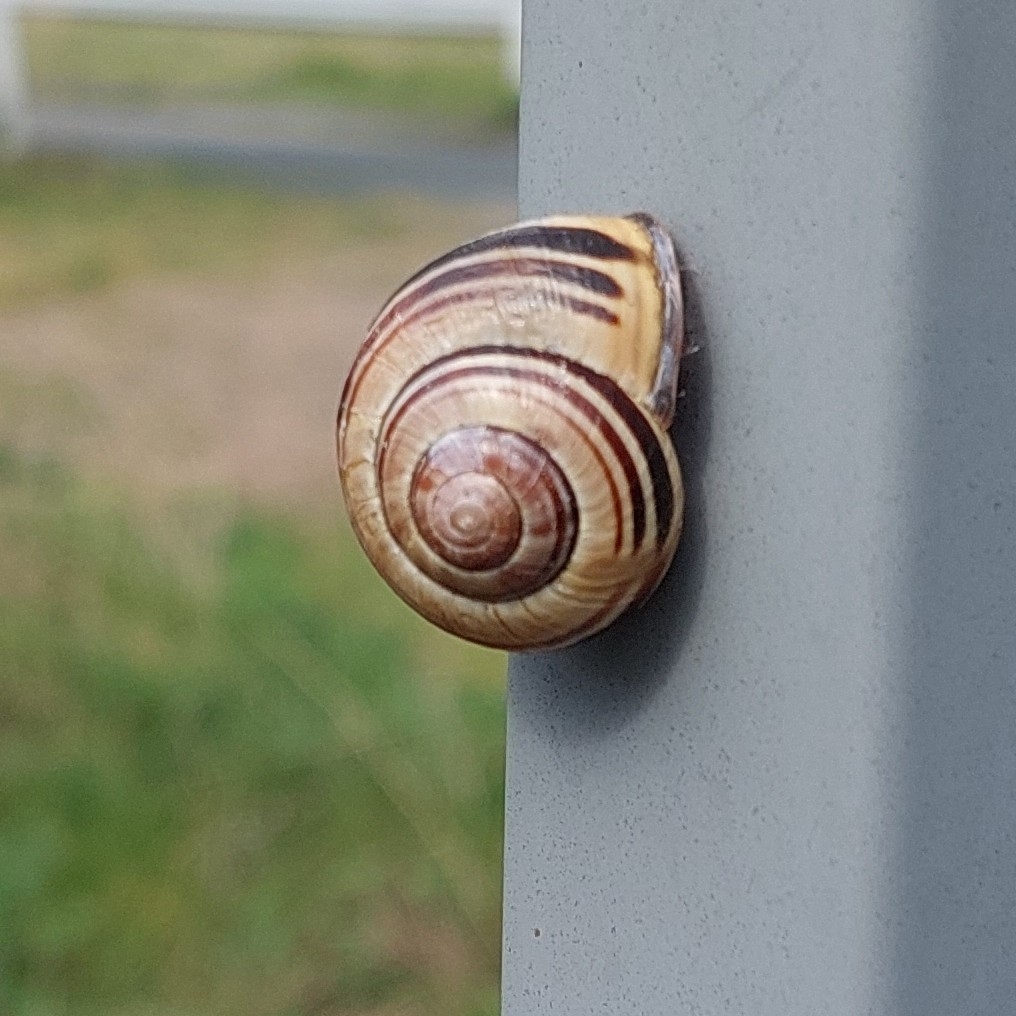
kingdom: Animalia
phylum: Mollusca
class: Gastropoda
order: Stylommatophora
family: Helicidae
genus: Cepaea
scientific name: Cepaea nemoralis
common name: Grovesnail
